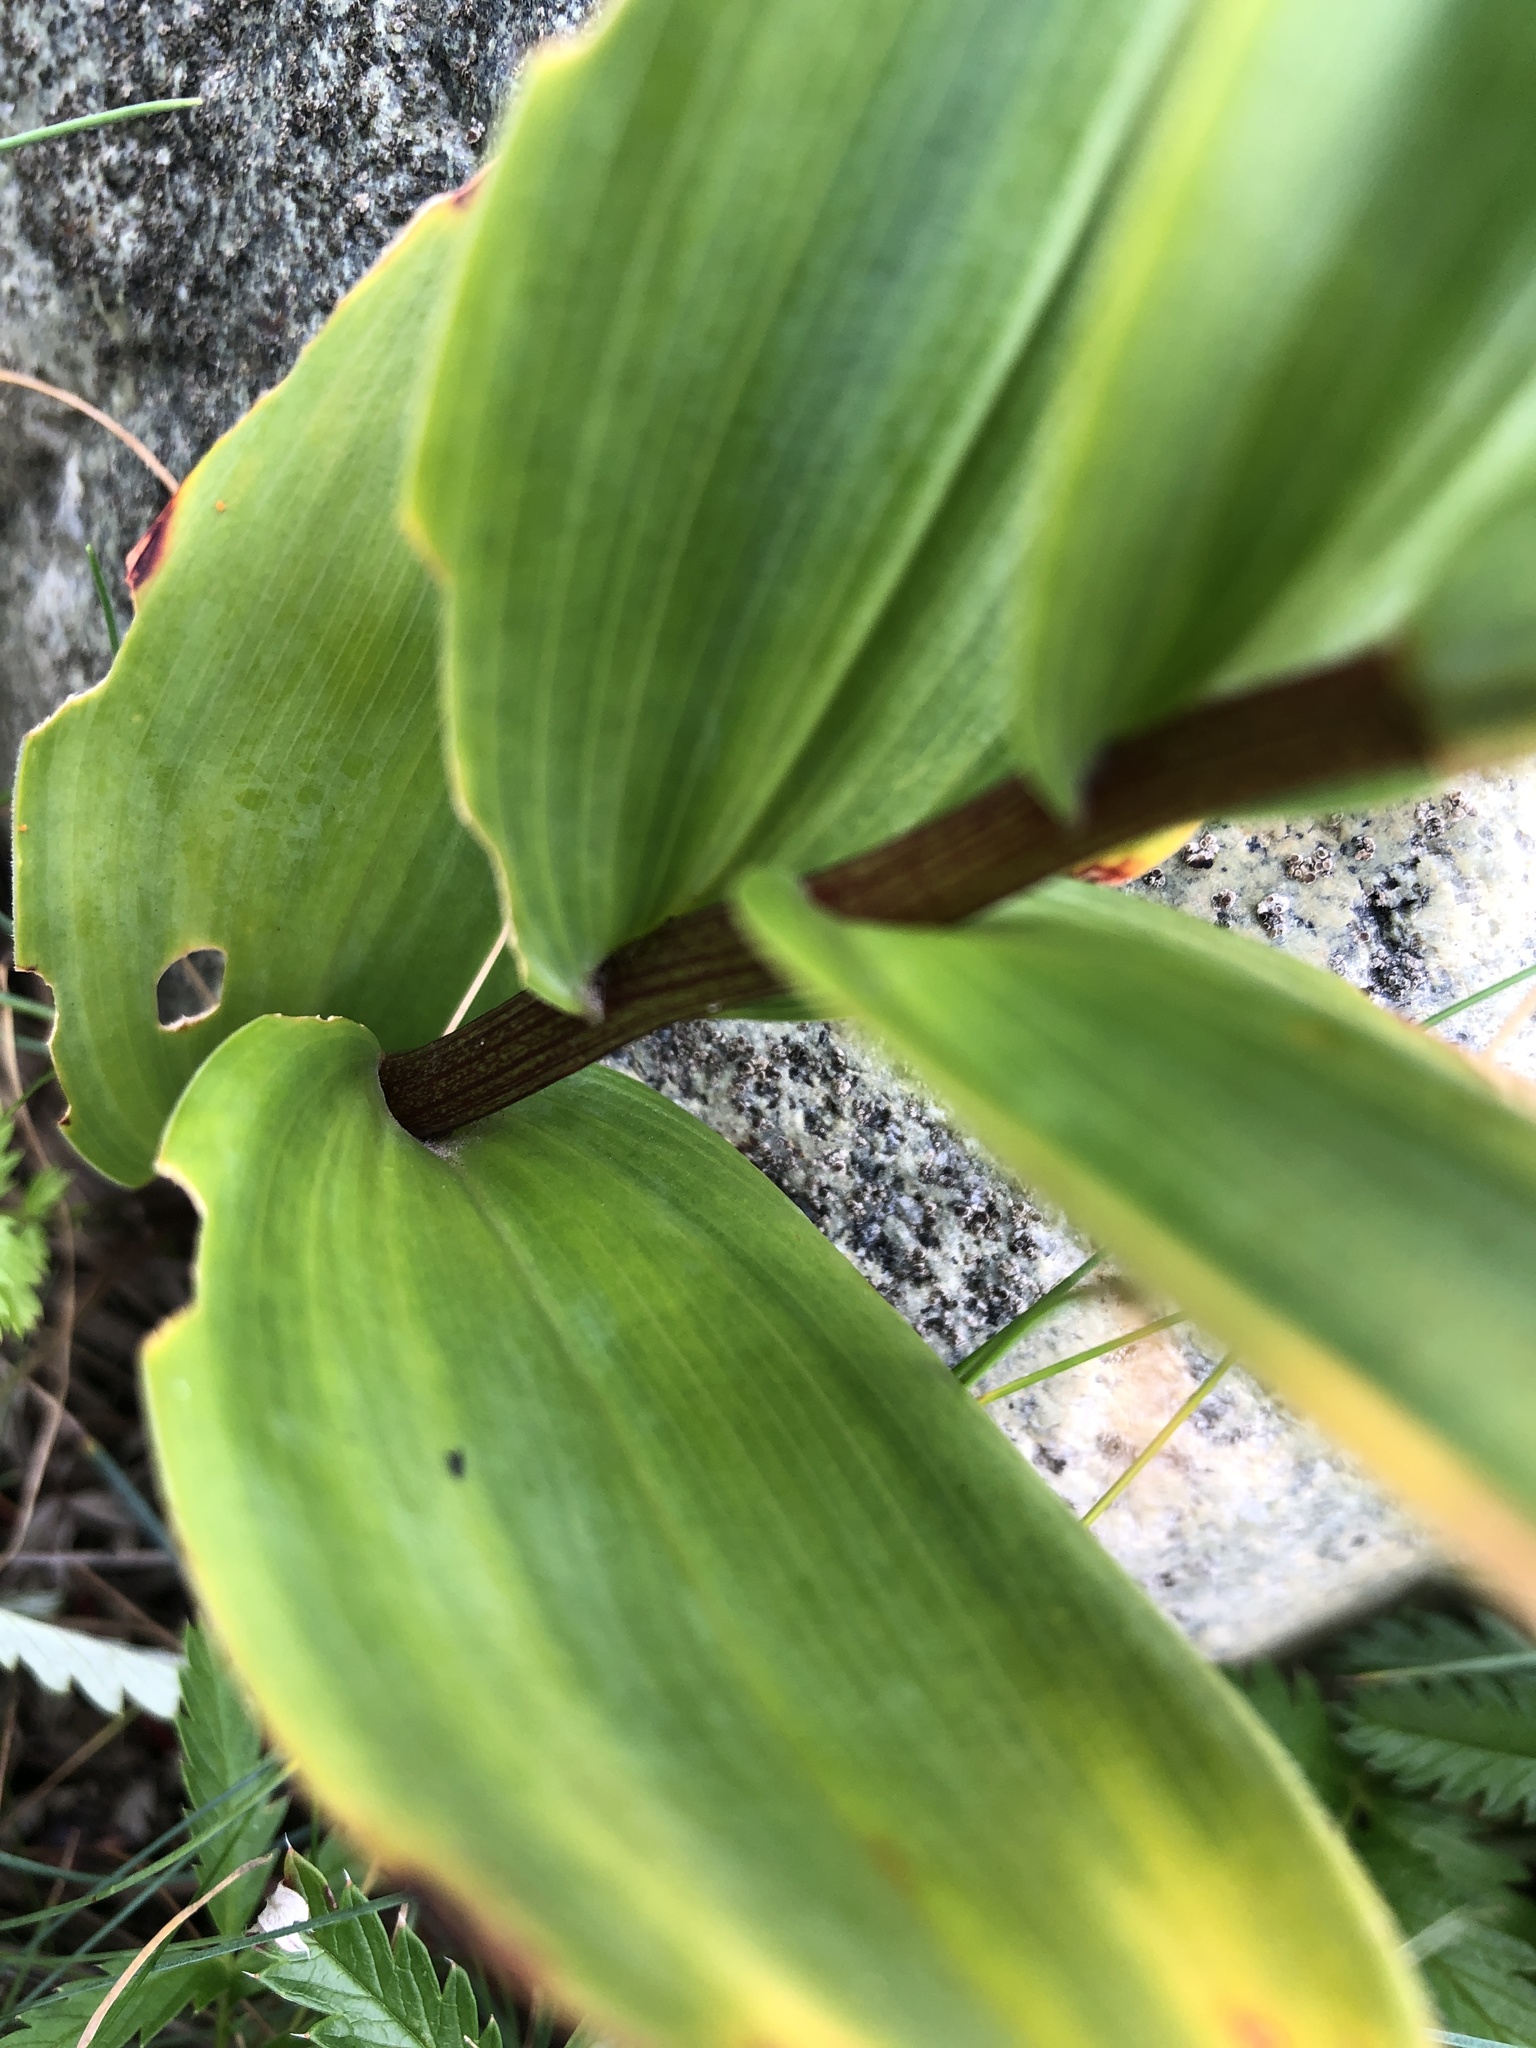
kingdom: Plantae
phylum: Tracheophyta
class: Liliopsida
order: Asparagales
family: Asparagaceae
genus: Maianthemum
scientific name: Maianthemum stellatum
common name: Little false solomon's seal
